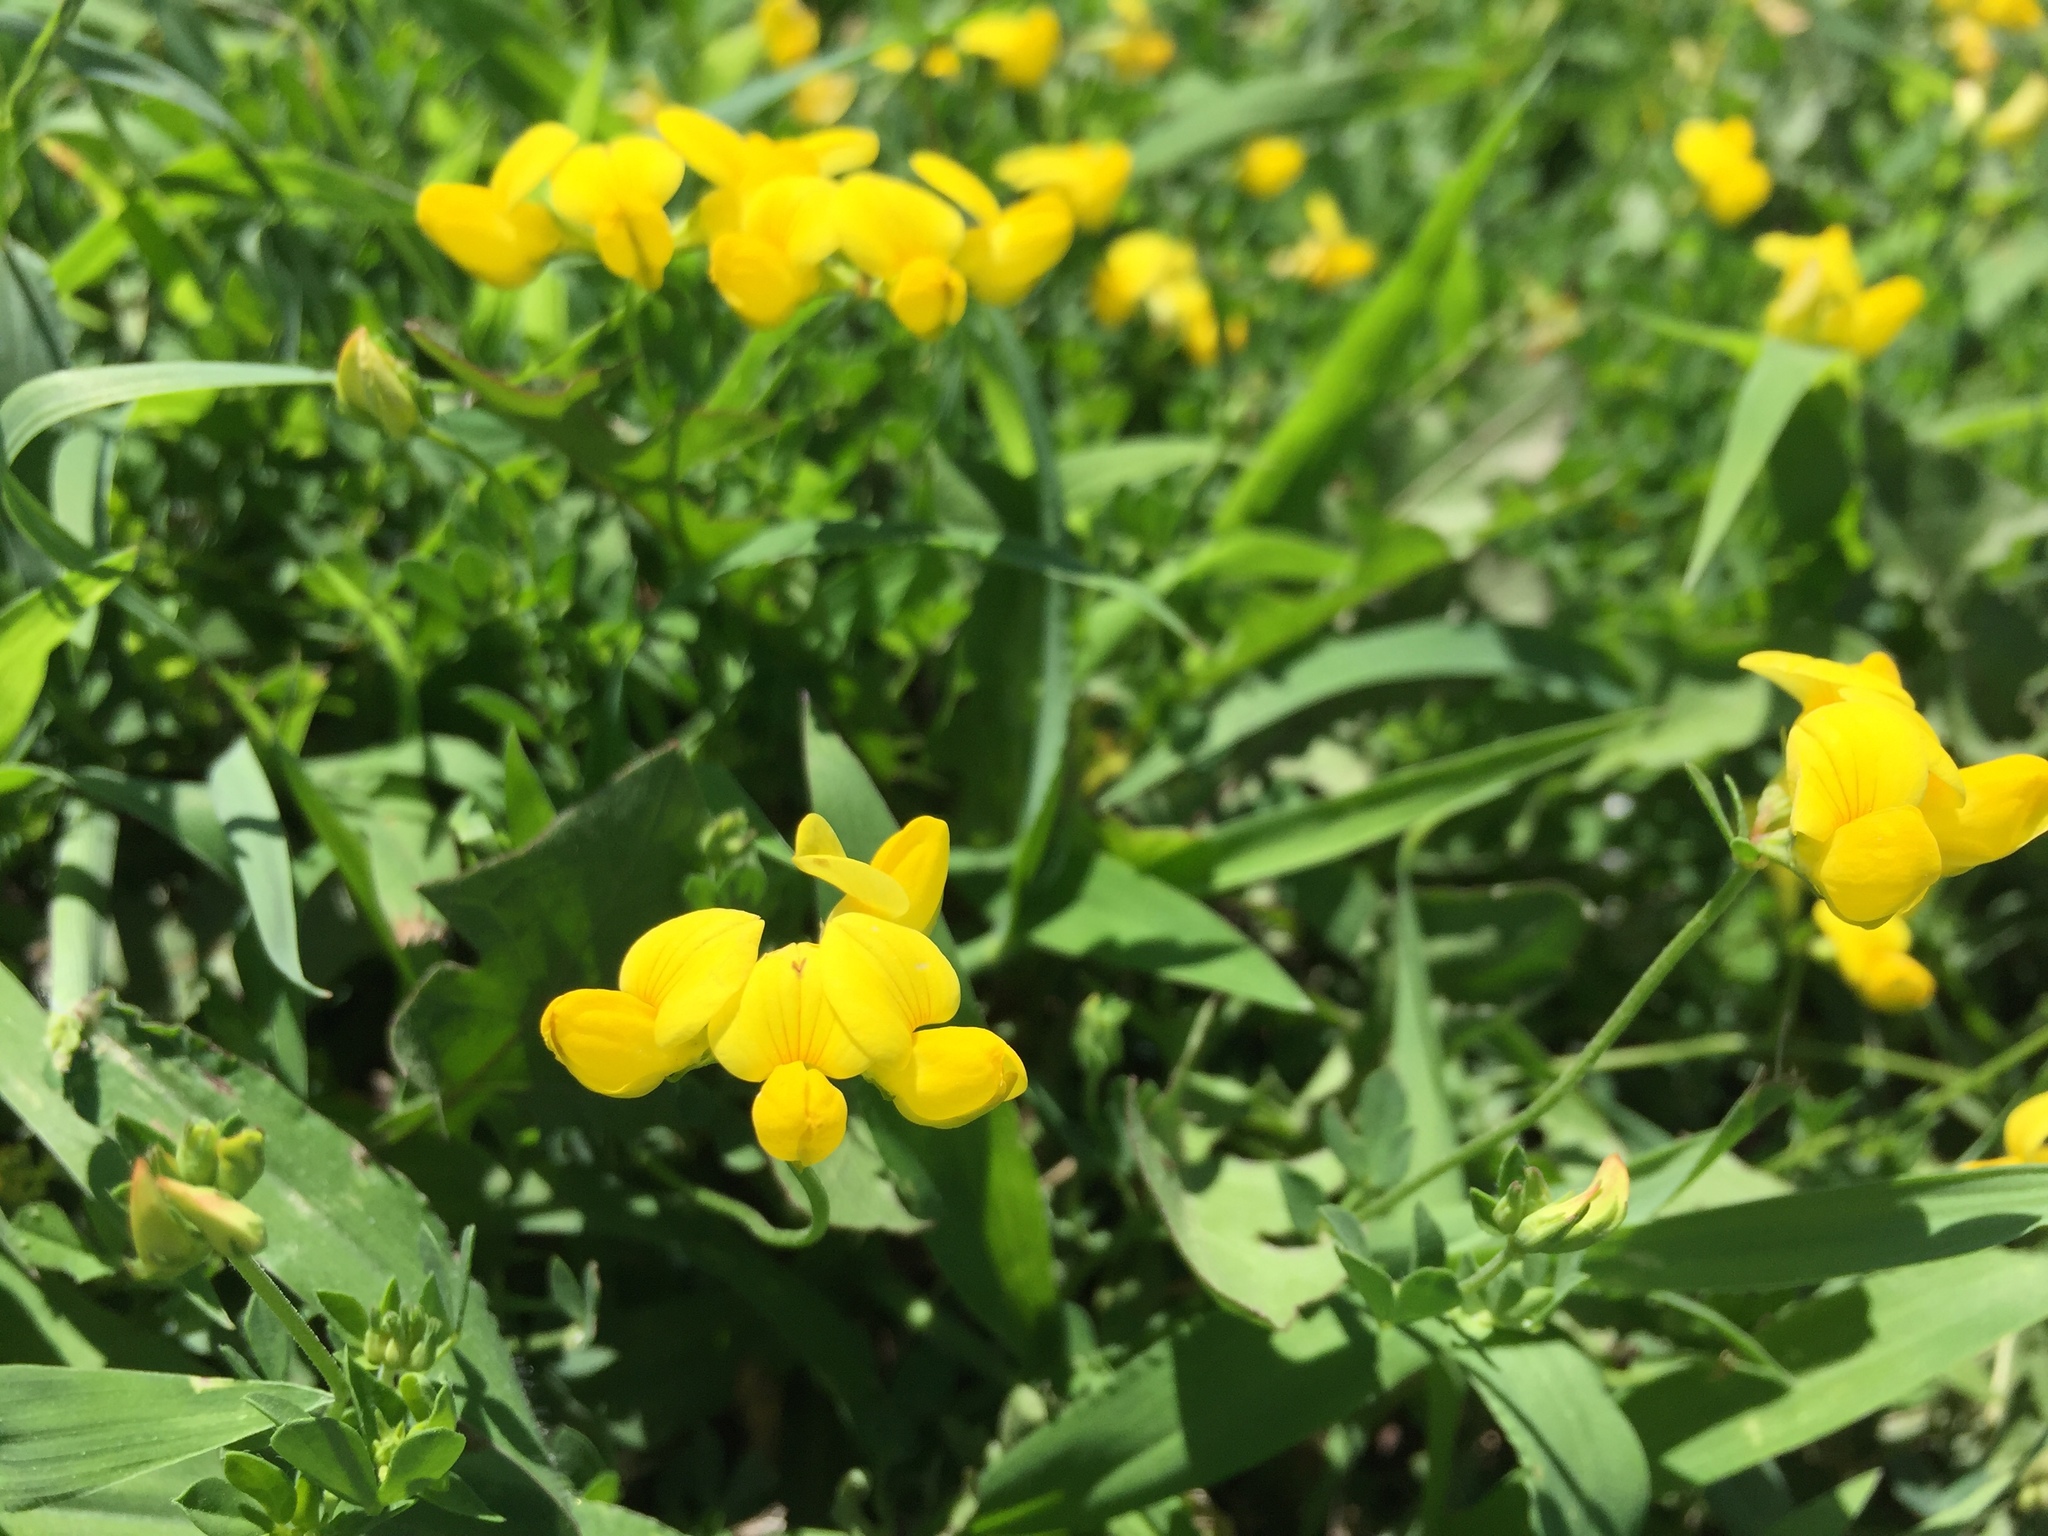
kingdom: Plantae
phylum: Tracheophyta
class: Magnoliopsida
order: Fabales
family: Fabaceae
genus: Lotus
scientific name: Lotus corniculatus
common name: Common bird's-foot-trefoil
